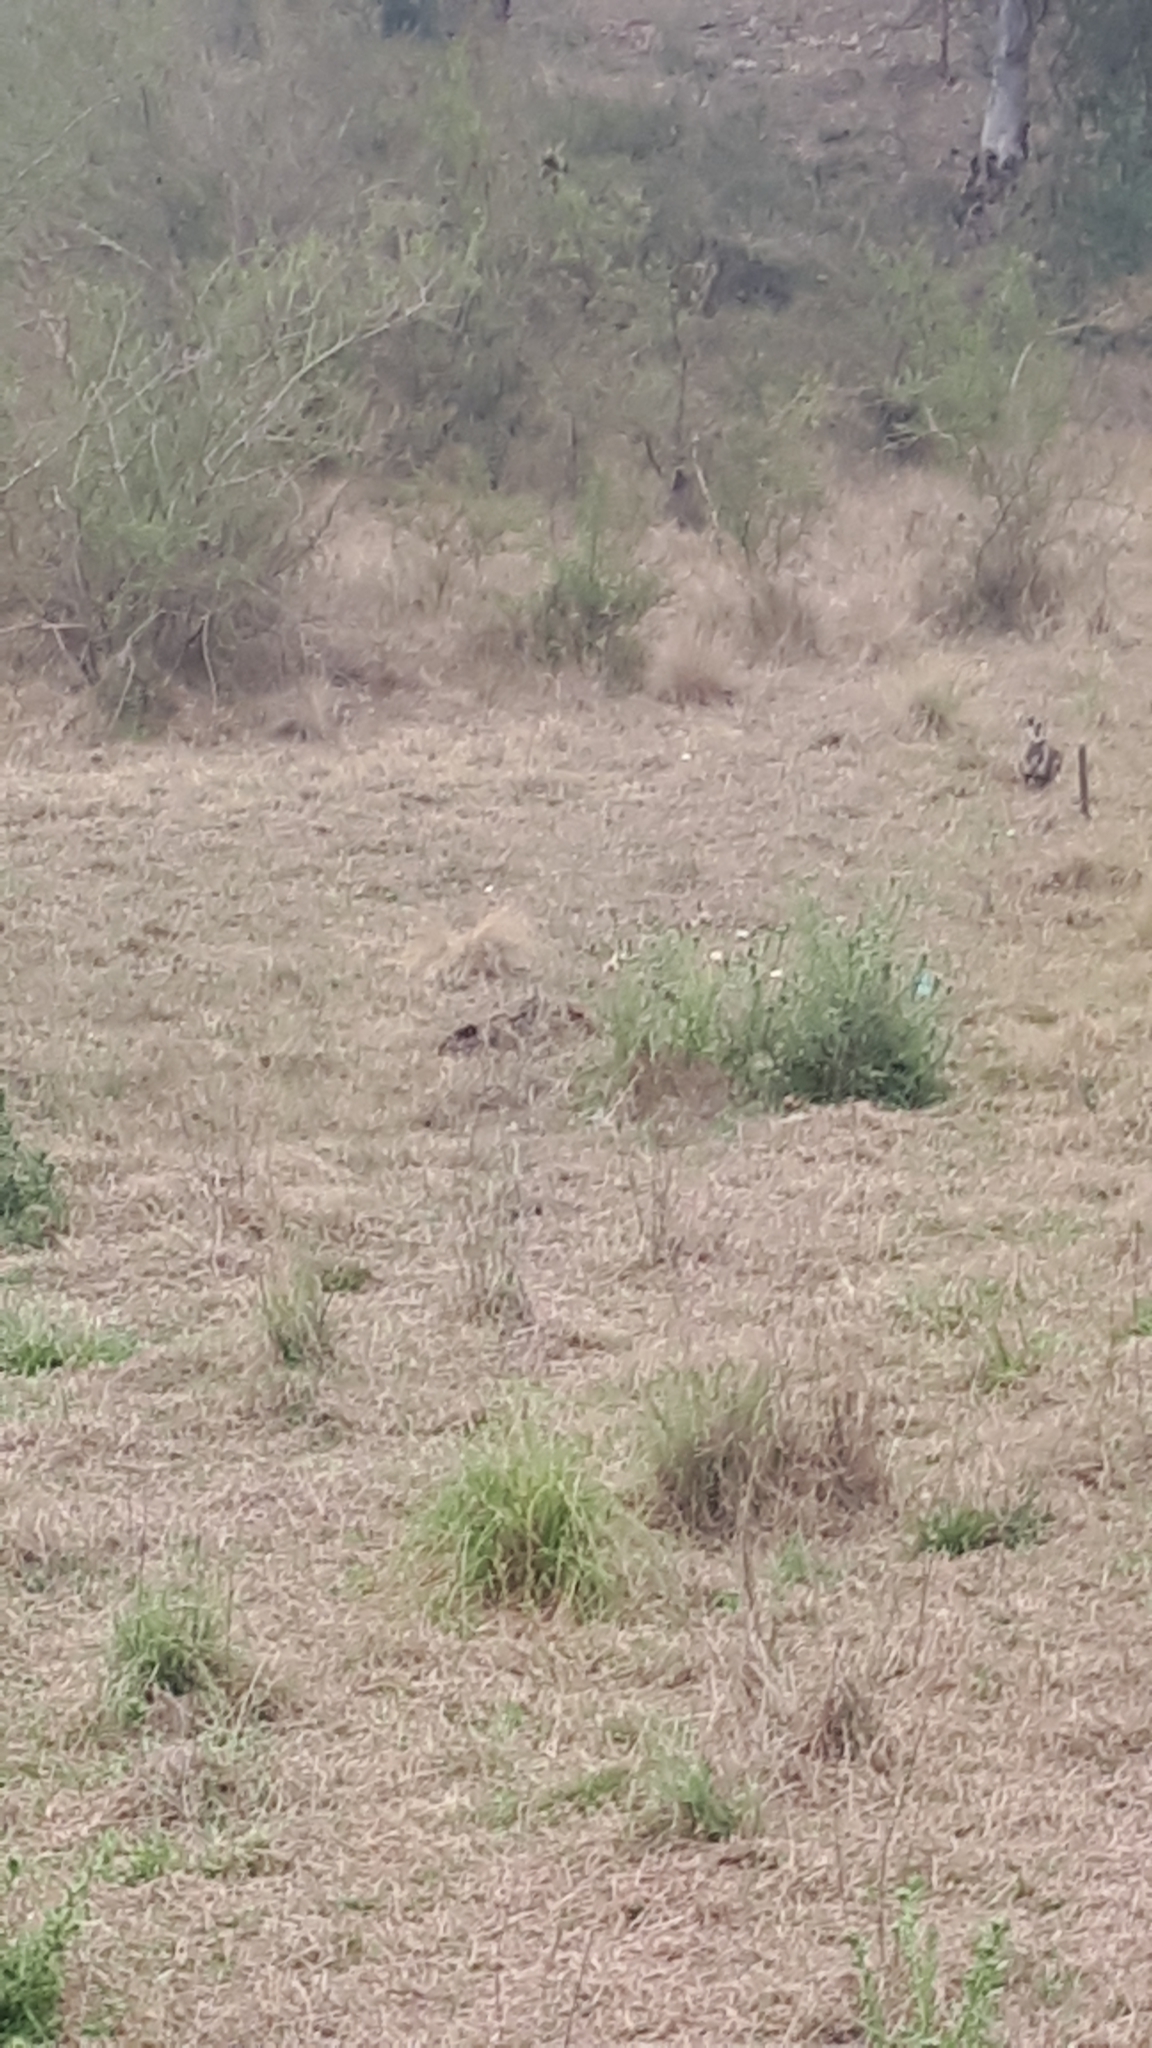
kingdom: Animalia
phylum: Chordata
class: Mammalia
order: Diprotodontia
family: Macropodidae
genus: Macropus
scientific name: Macropus giganteus
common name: Eastern grey kangaroo
